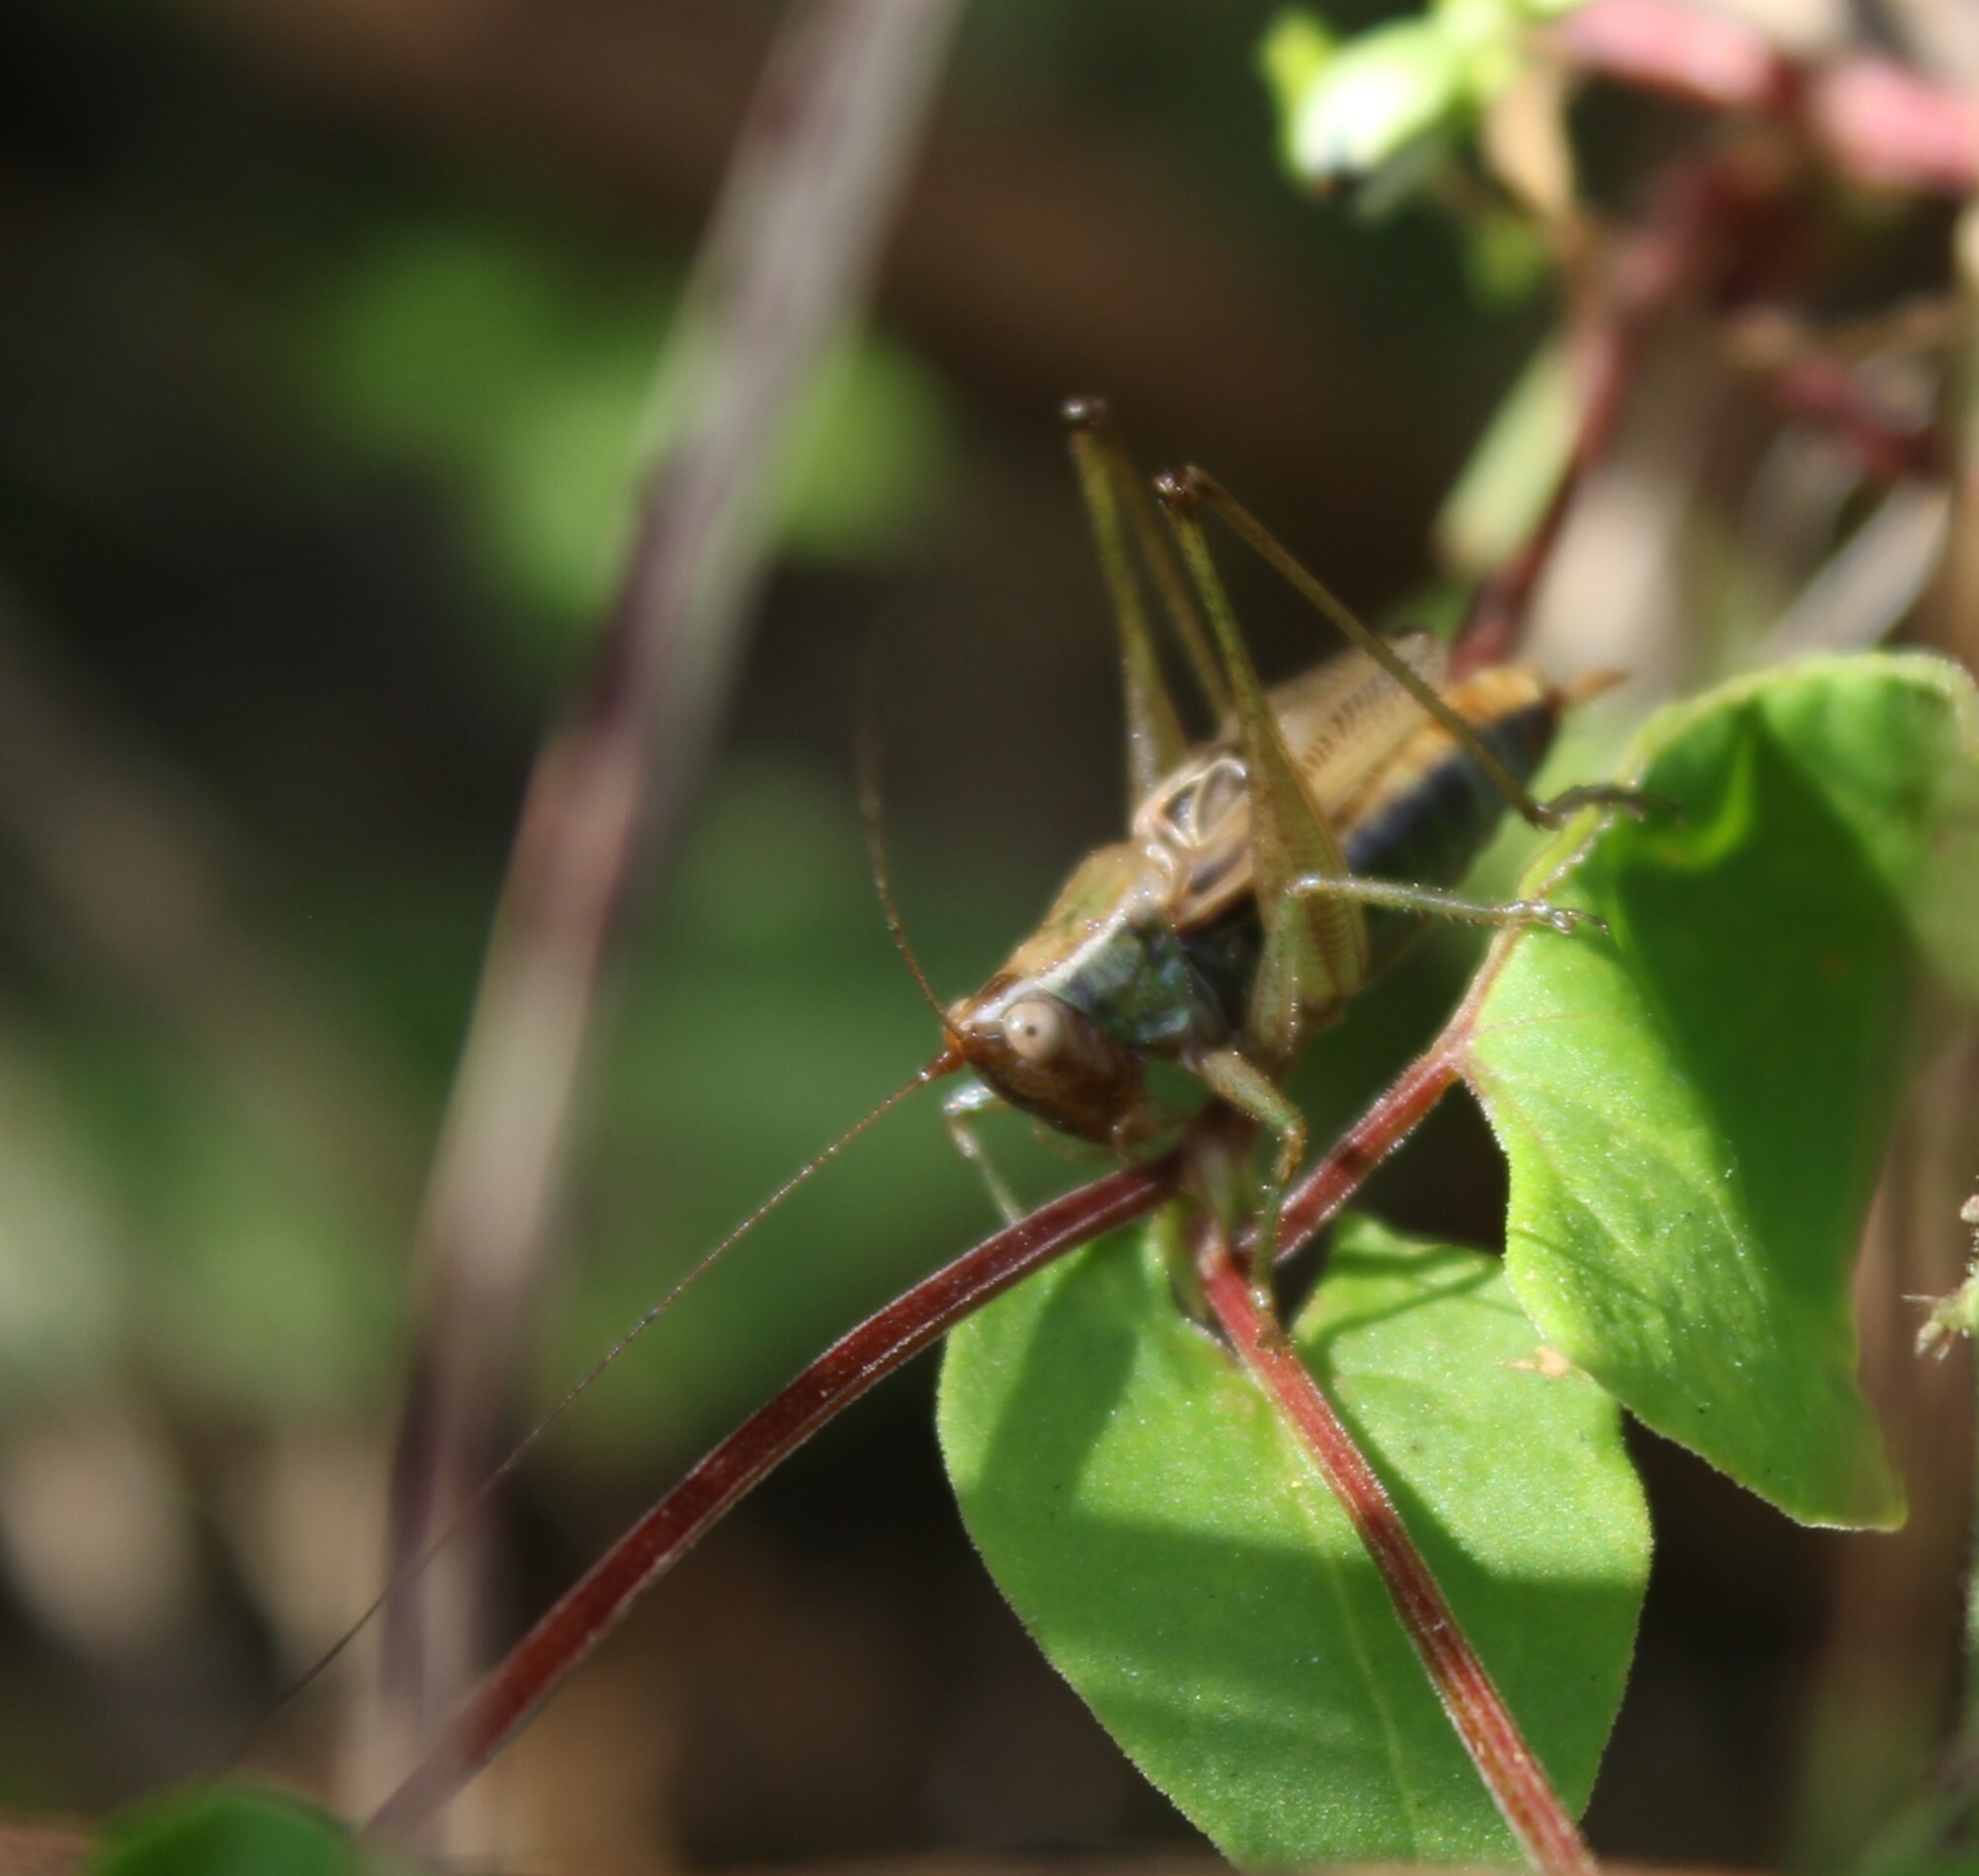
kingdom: Animalia
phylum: Arthropoda
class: Insecta
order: Orthoptera
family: Tettigoniidae
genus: Conocephalus
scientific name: Conocephalus nemoralis
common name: Woodland meadow katydid
